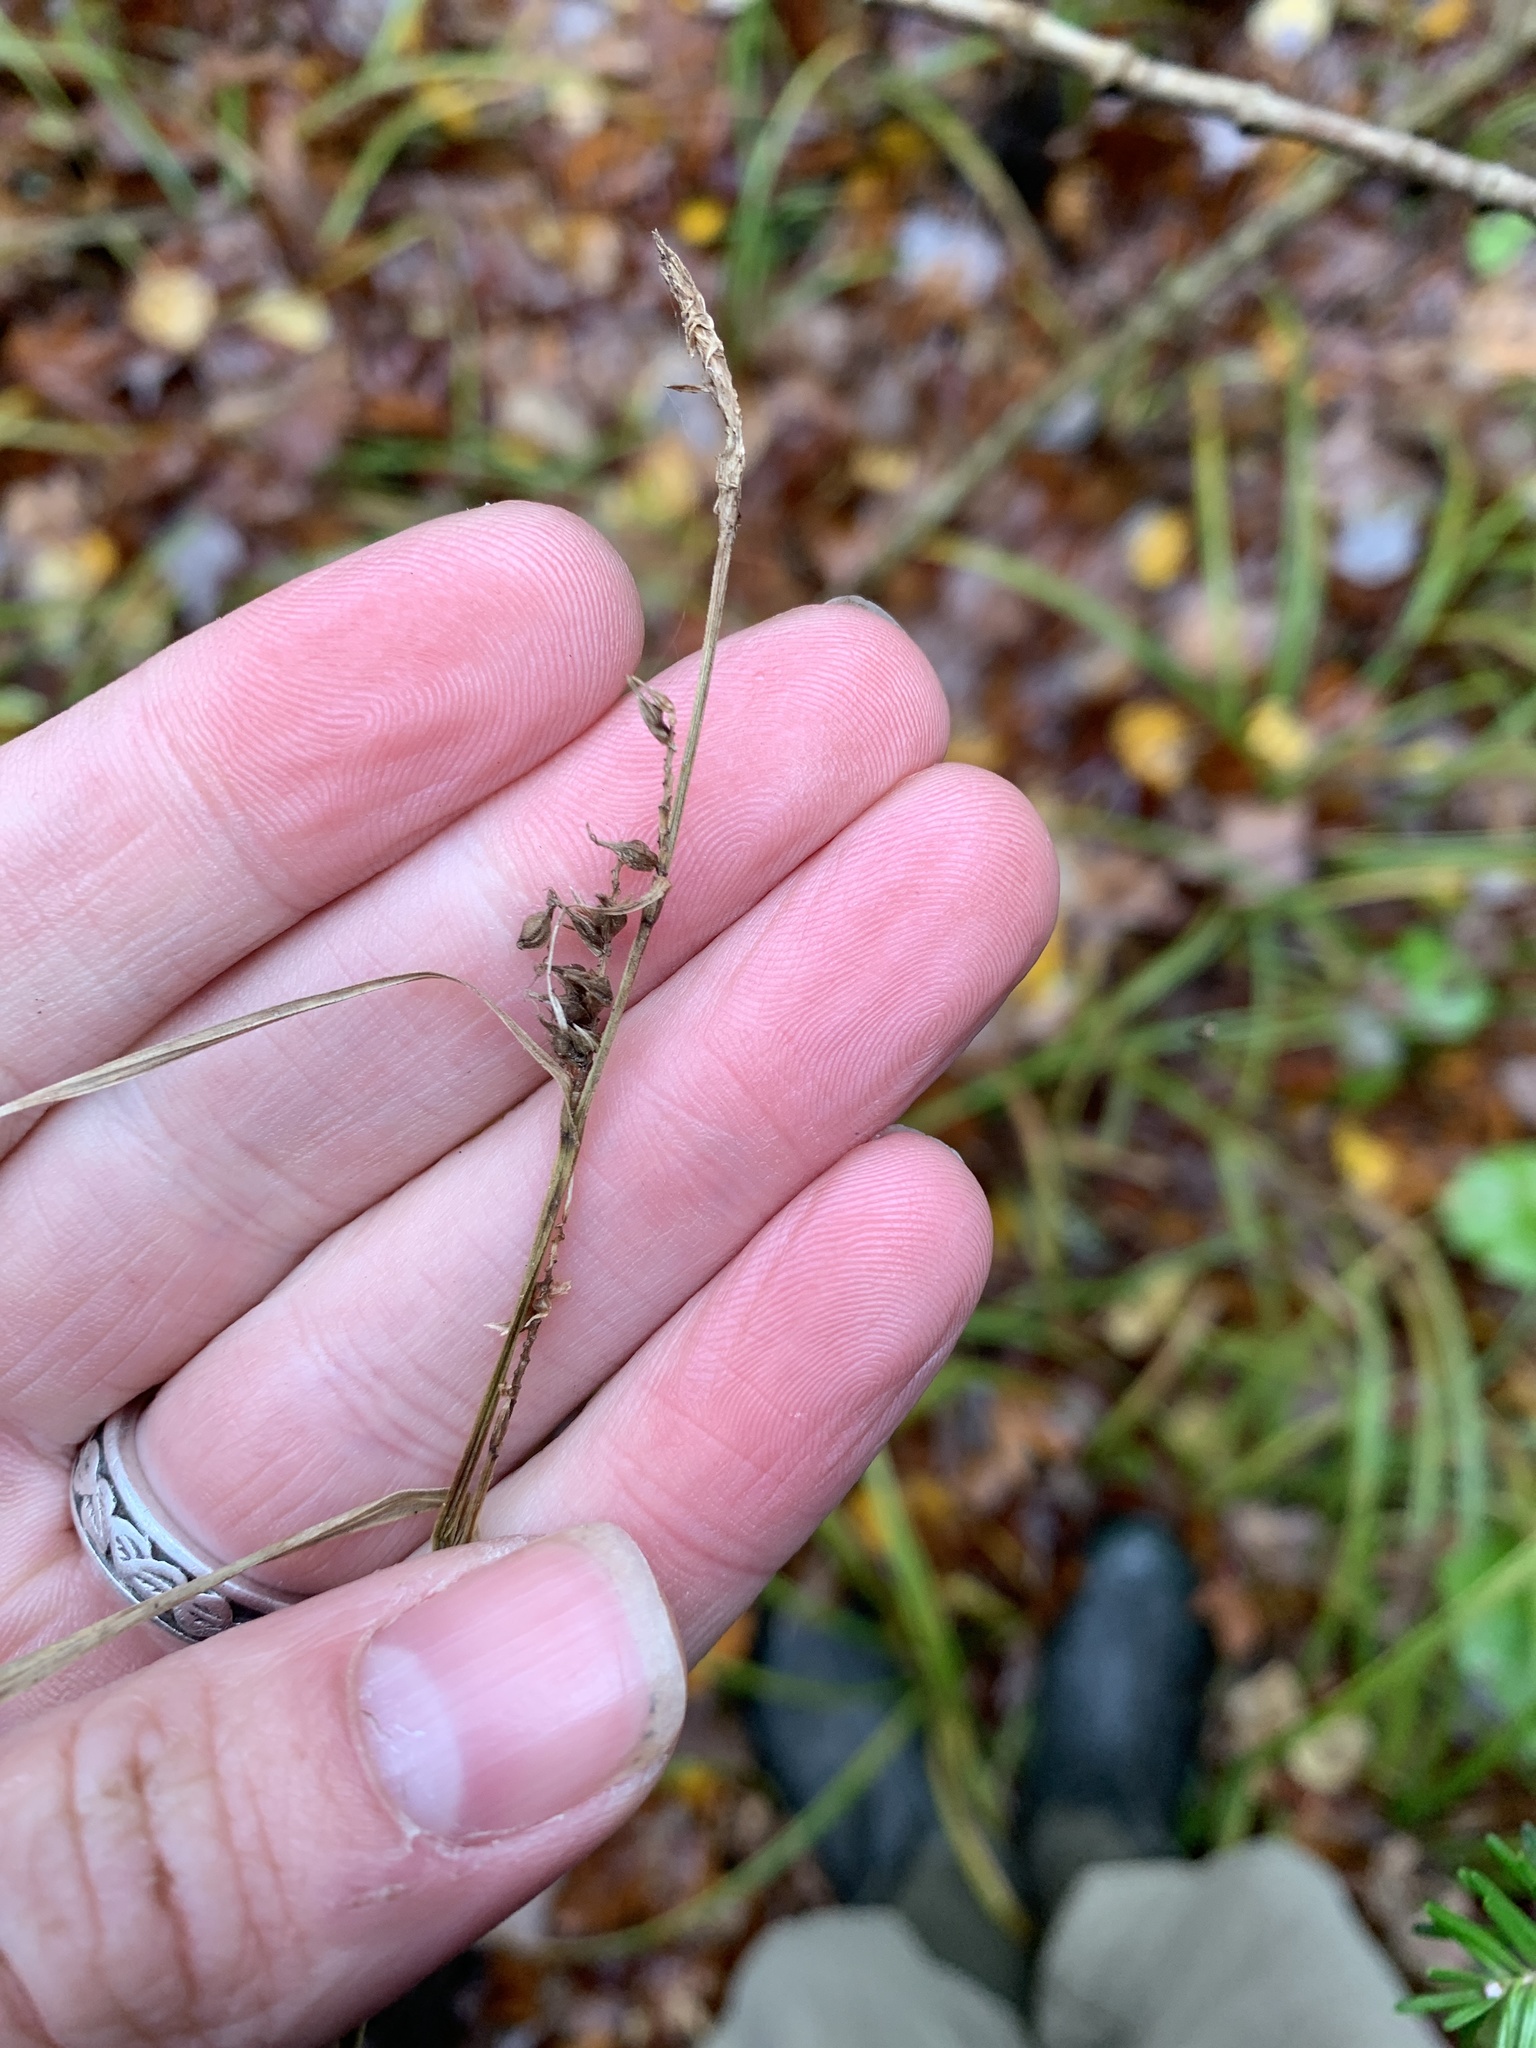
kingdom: Plantae
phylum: Tracheophyta
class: Liliopsida
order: Poales
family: Cyperaceae
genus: Carex
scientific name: Carex scabrata
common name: Eastern rough sedge
